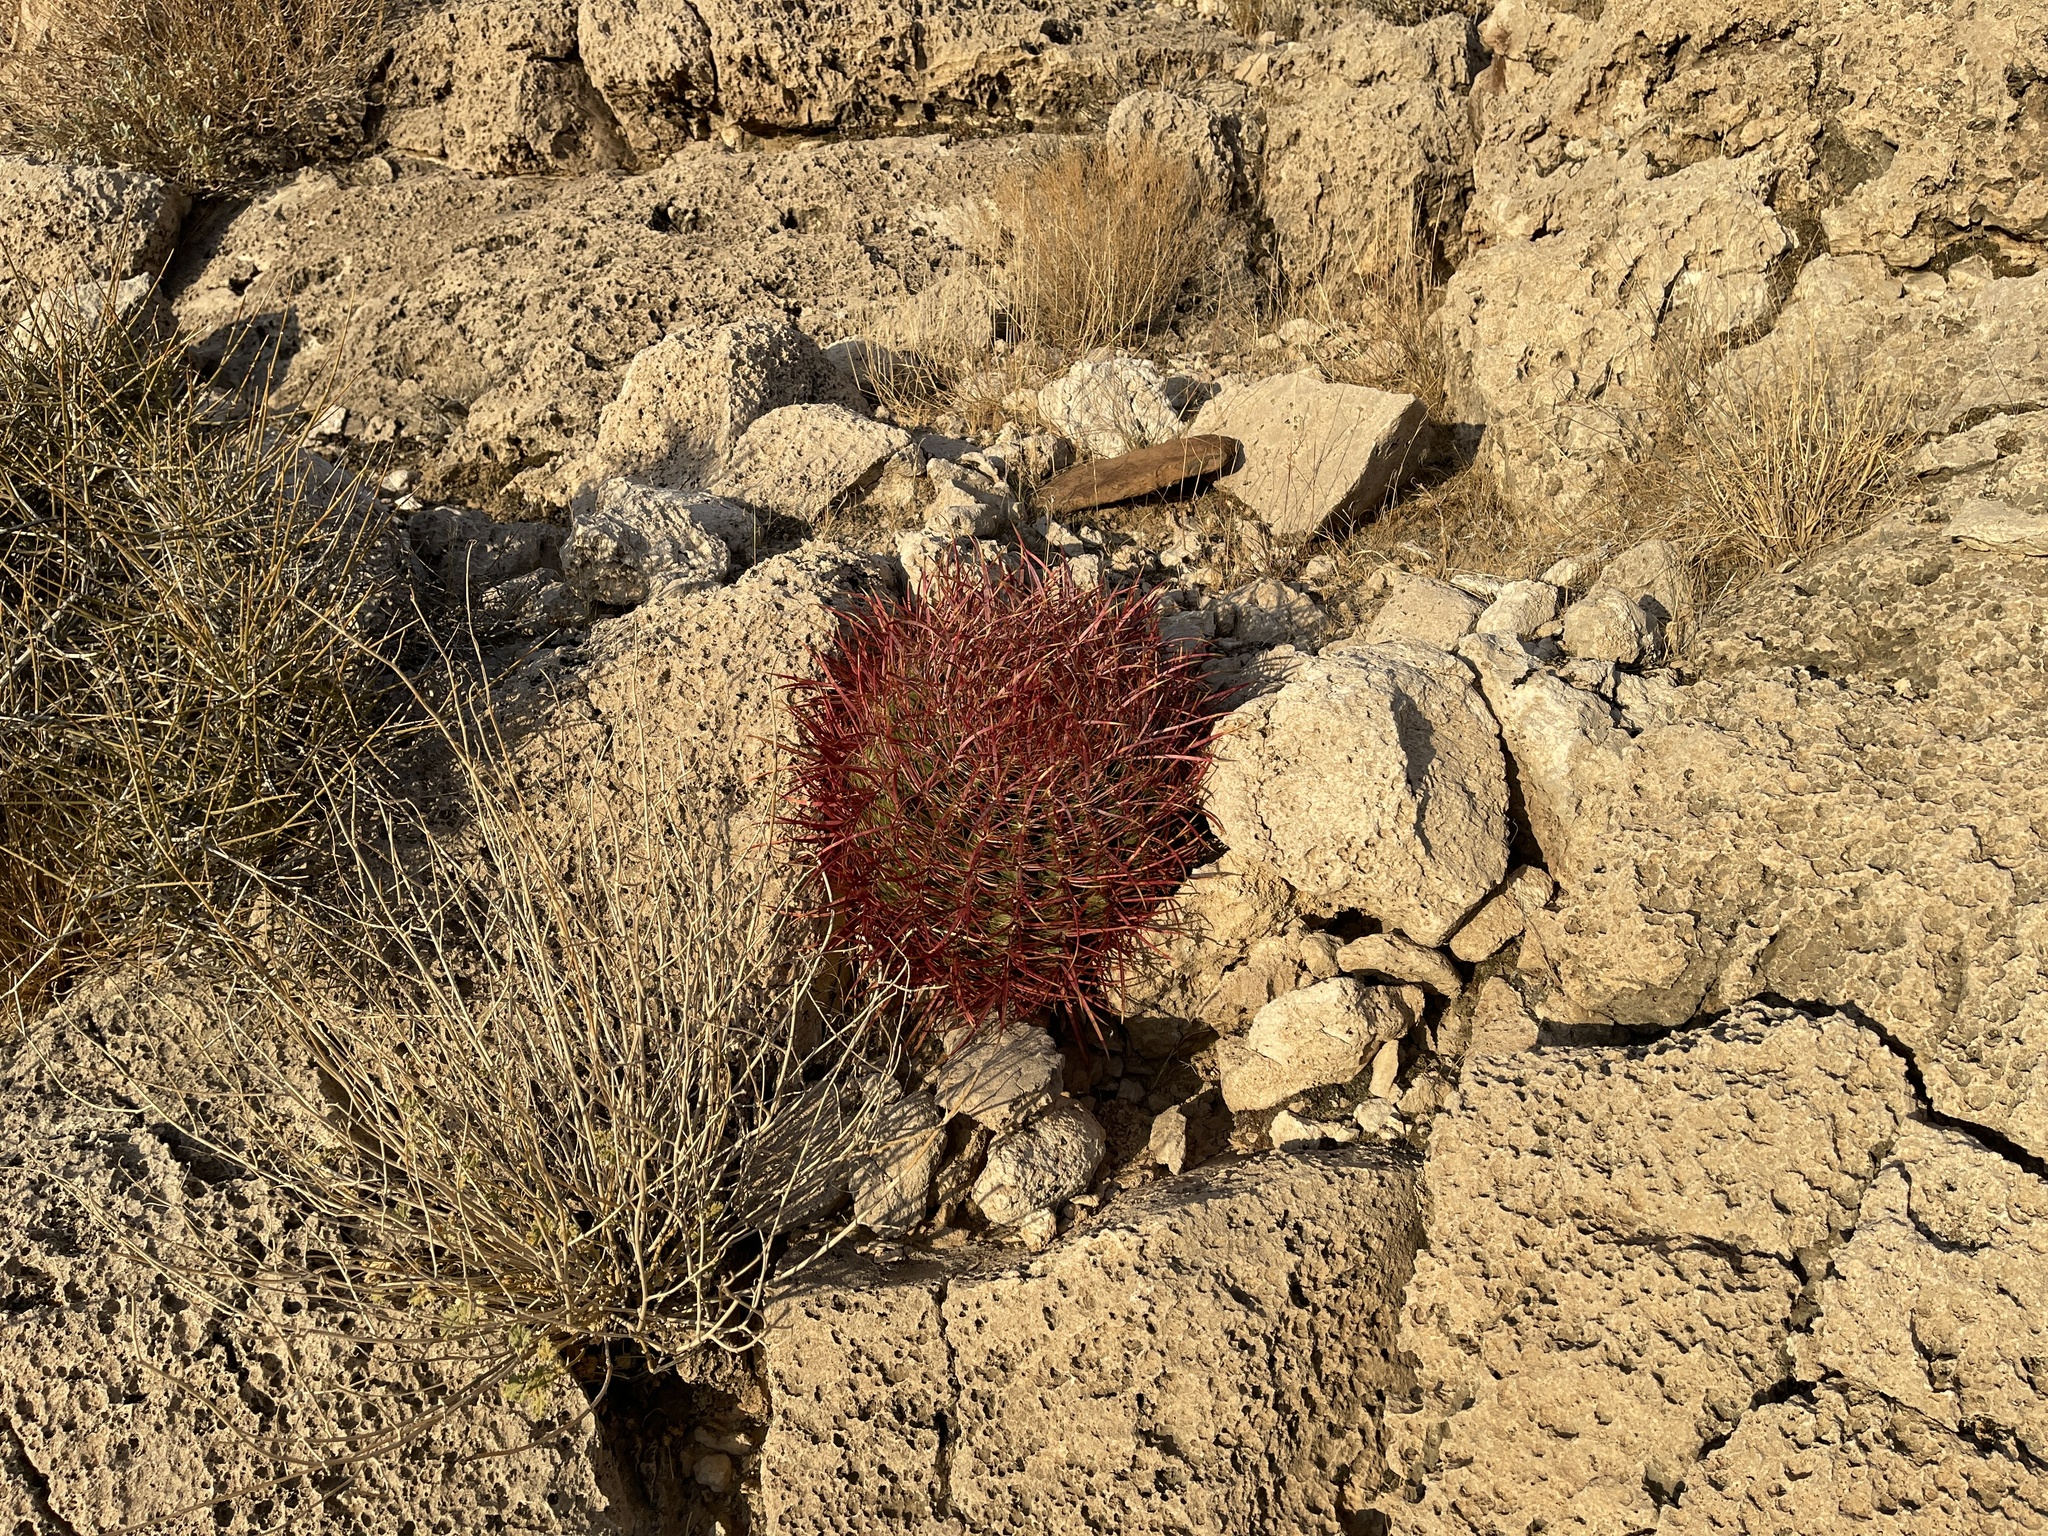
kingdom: Plantae
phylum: Tracheophyta
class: Magnoliopsida
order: Caryophyllales
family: Cactaceae
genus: Ferocactus
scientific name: Ferocactus cylindraceus
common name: California barrel cactus
